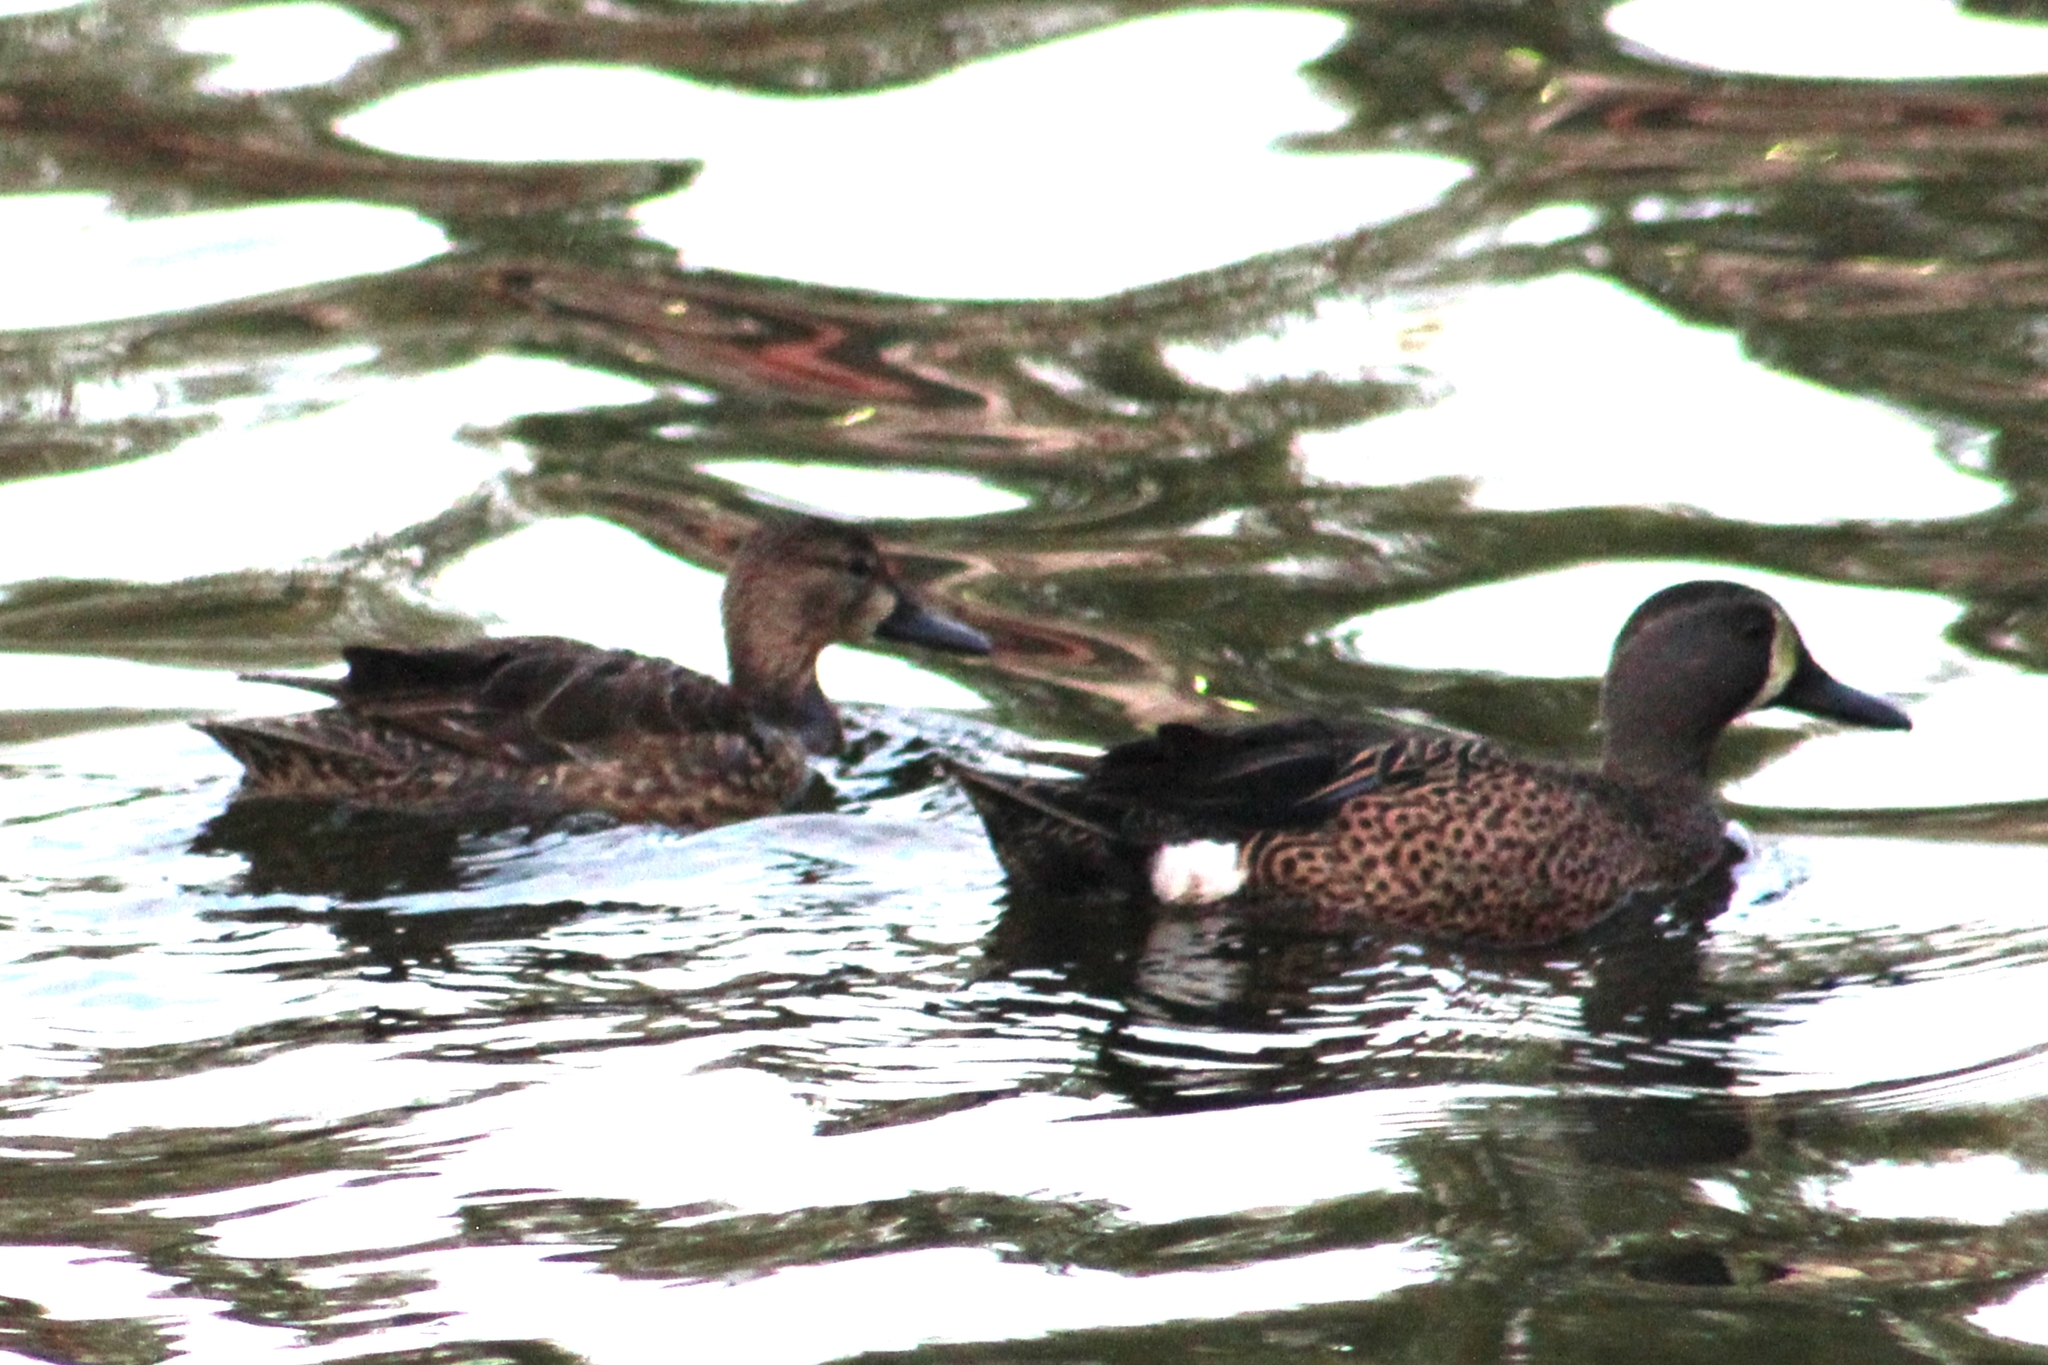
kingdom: Animalia
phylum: Chordata
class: Aves
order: Anseriformes
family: Anatidae
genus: Spatula
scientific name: Spatula discors
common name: Blue-winged teal
